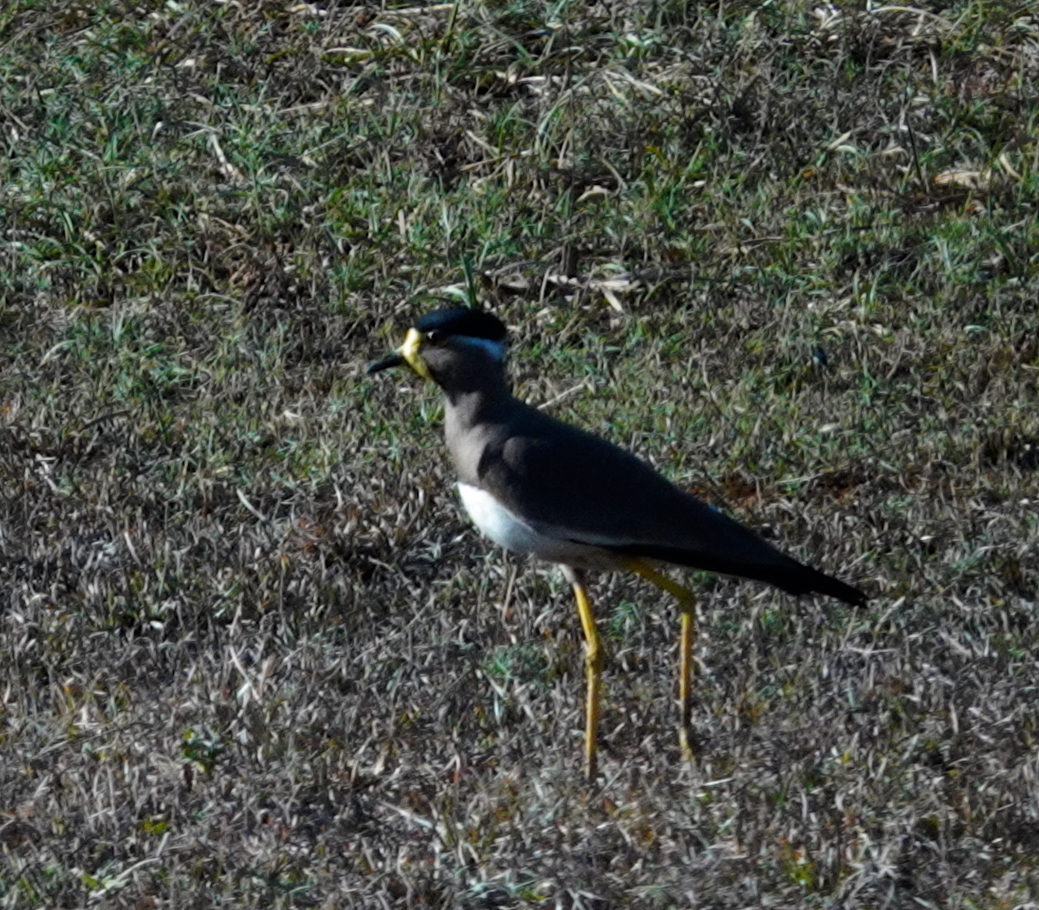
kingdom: Animalia
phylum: Chordata
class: Aves
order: Charadriiformes
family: Charadriidae
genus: Vanellus
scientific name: Vanellus malabaricus
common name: Yellow-wattled lapwing
